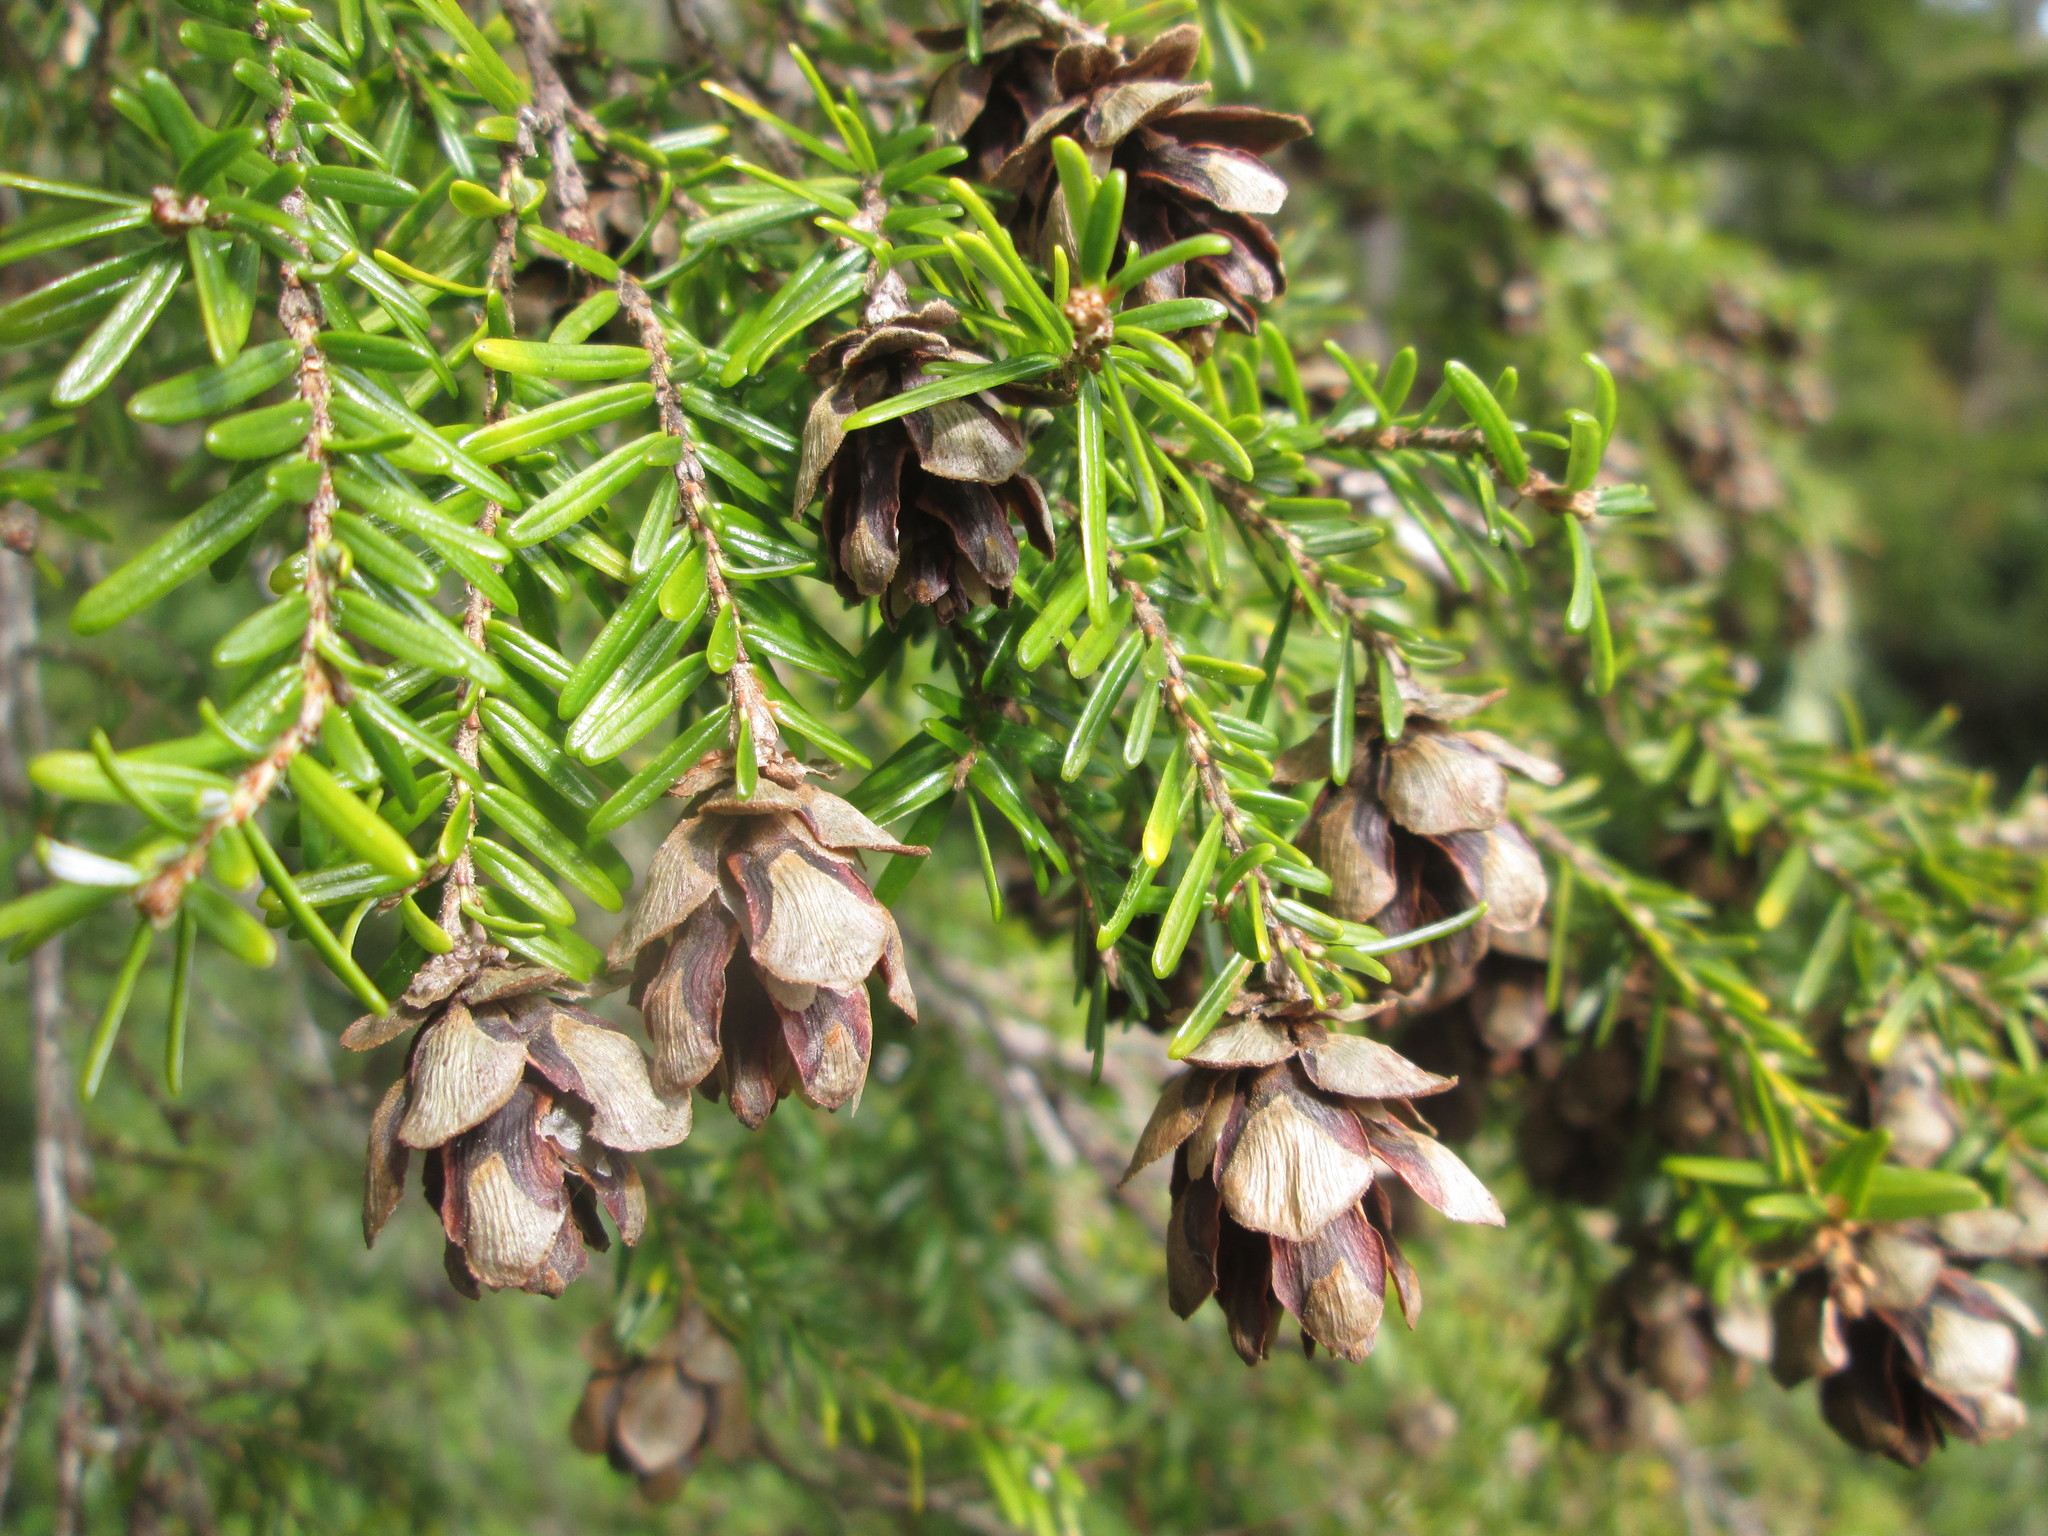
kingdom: Plantae
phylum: Tracheophyta
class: Pinopsida
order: Pinales
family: Pinaceae
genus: Tsuga
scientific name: Tsuga heterophylla
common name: Western hemlock
